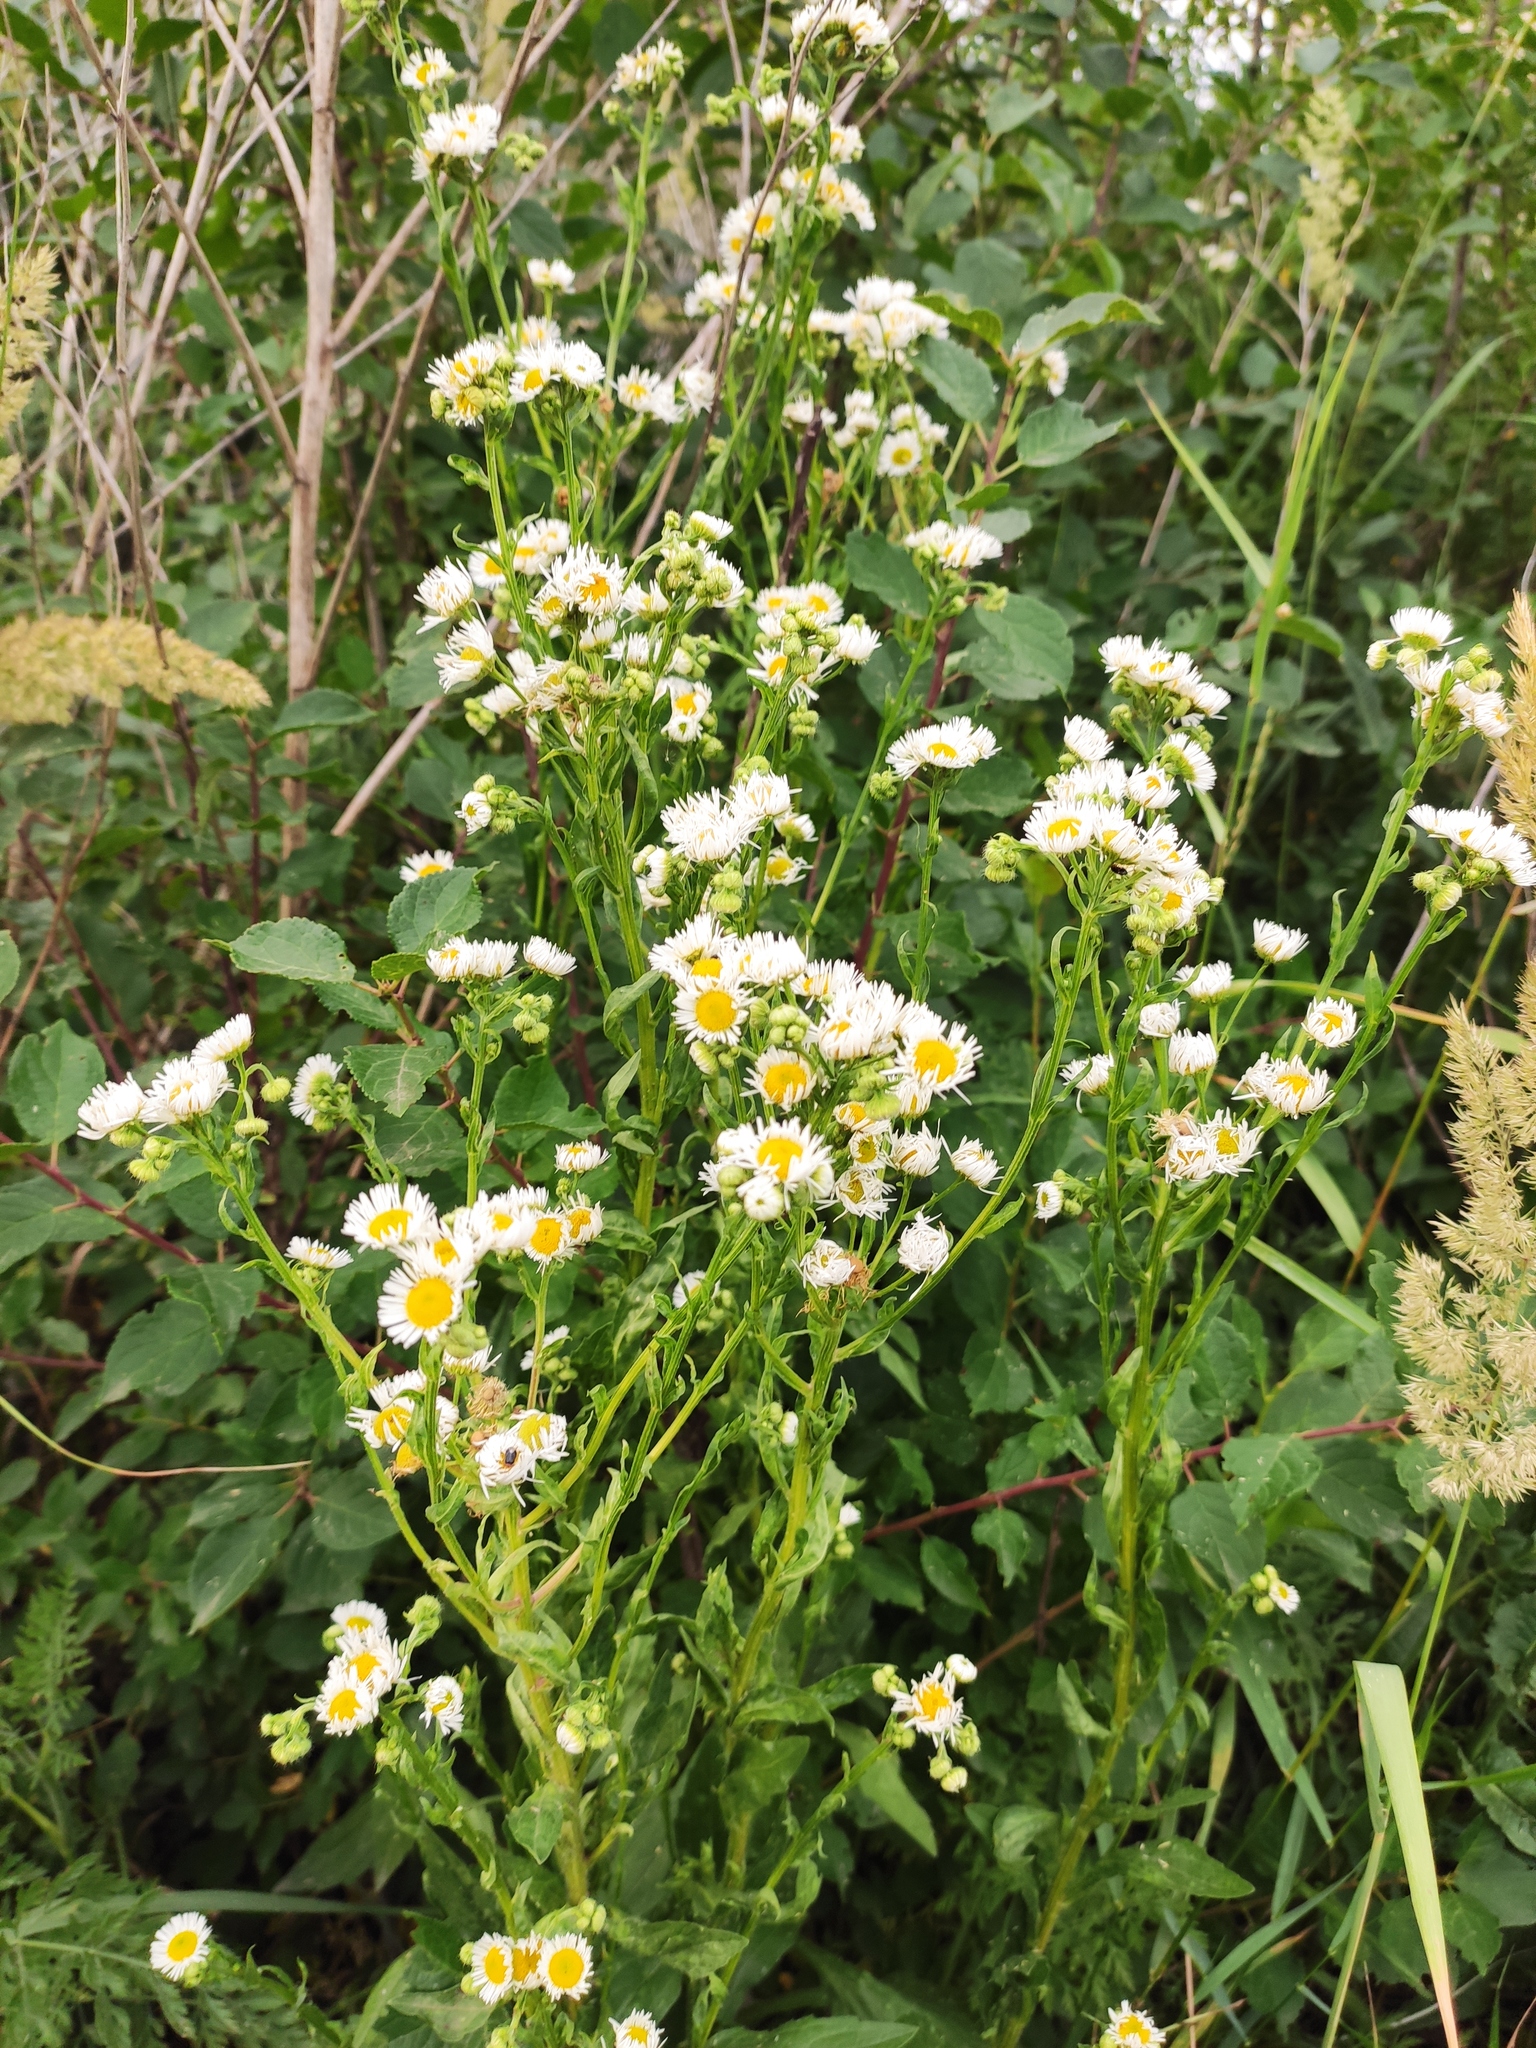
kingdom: Plantae
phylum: Tracheophyta
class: Magnoliopsida
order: Asterales
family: Asteraceae
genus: Erigeron
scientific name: Erigeron annuus
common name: Tall fleabane
